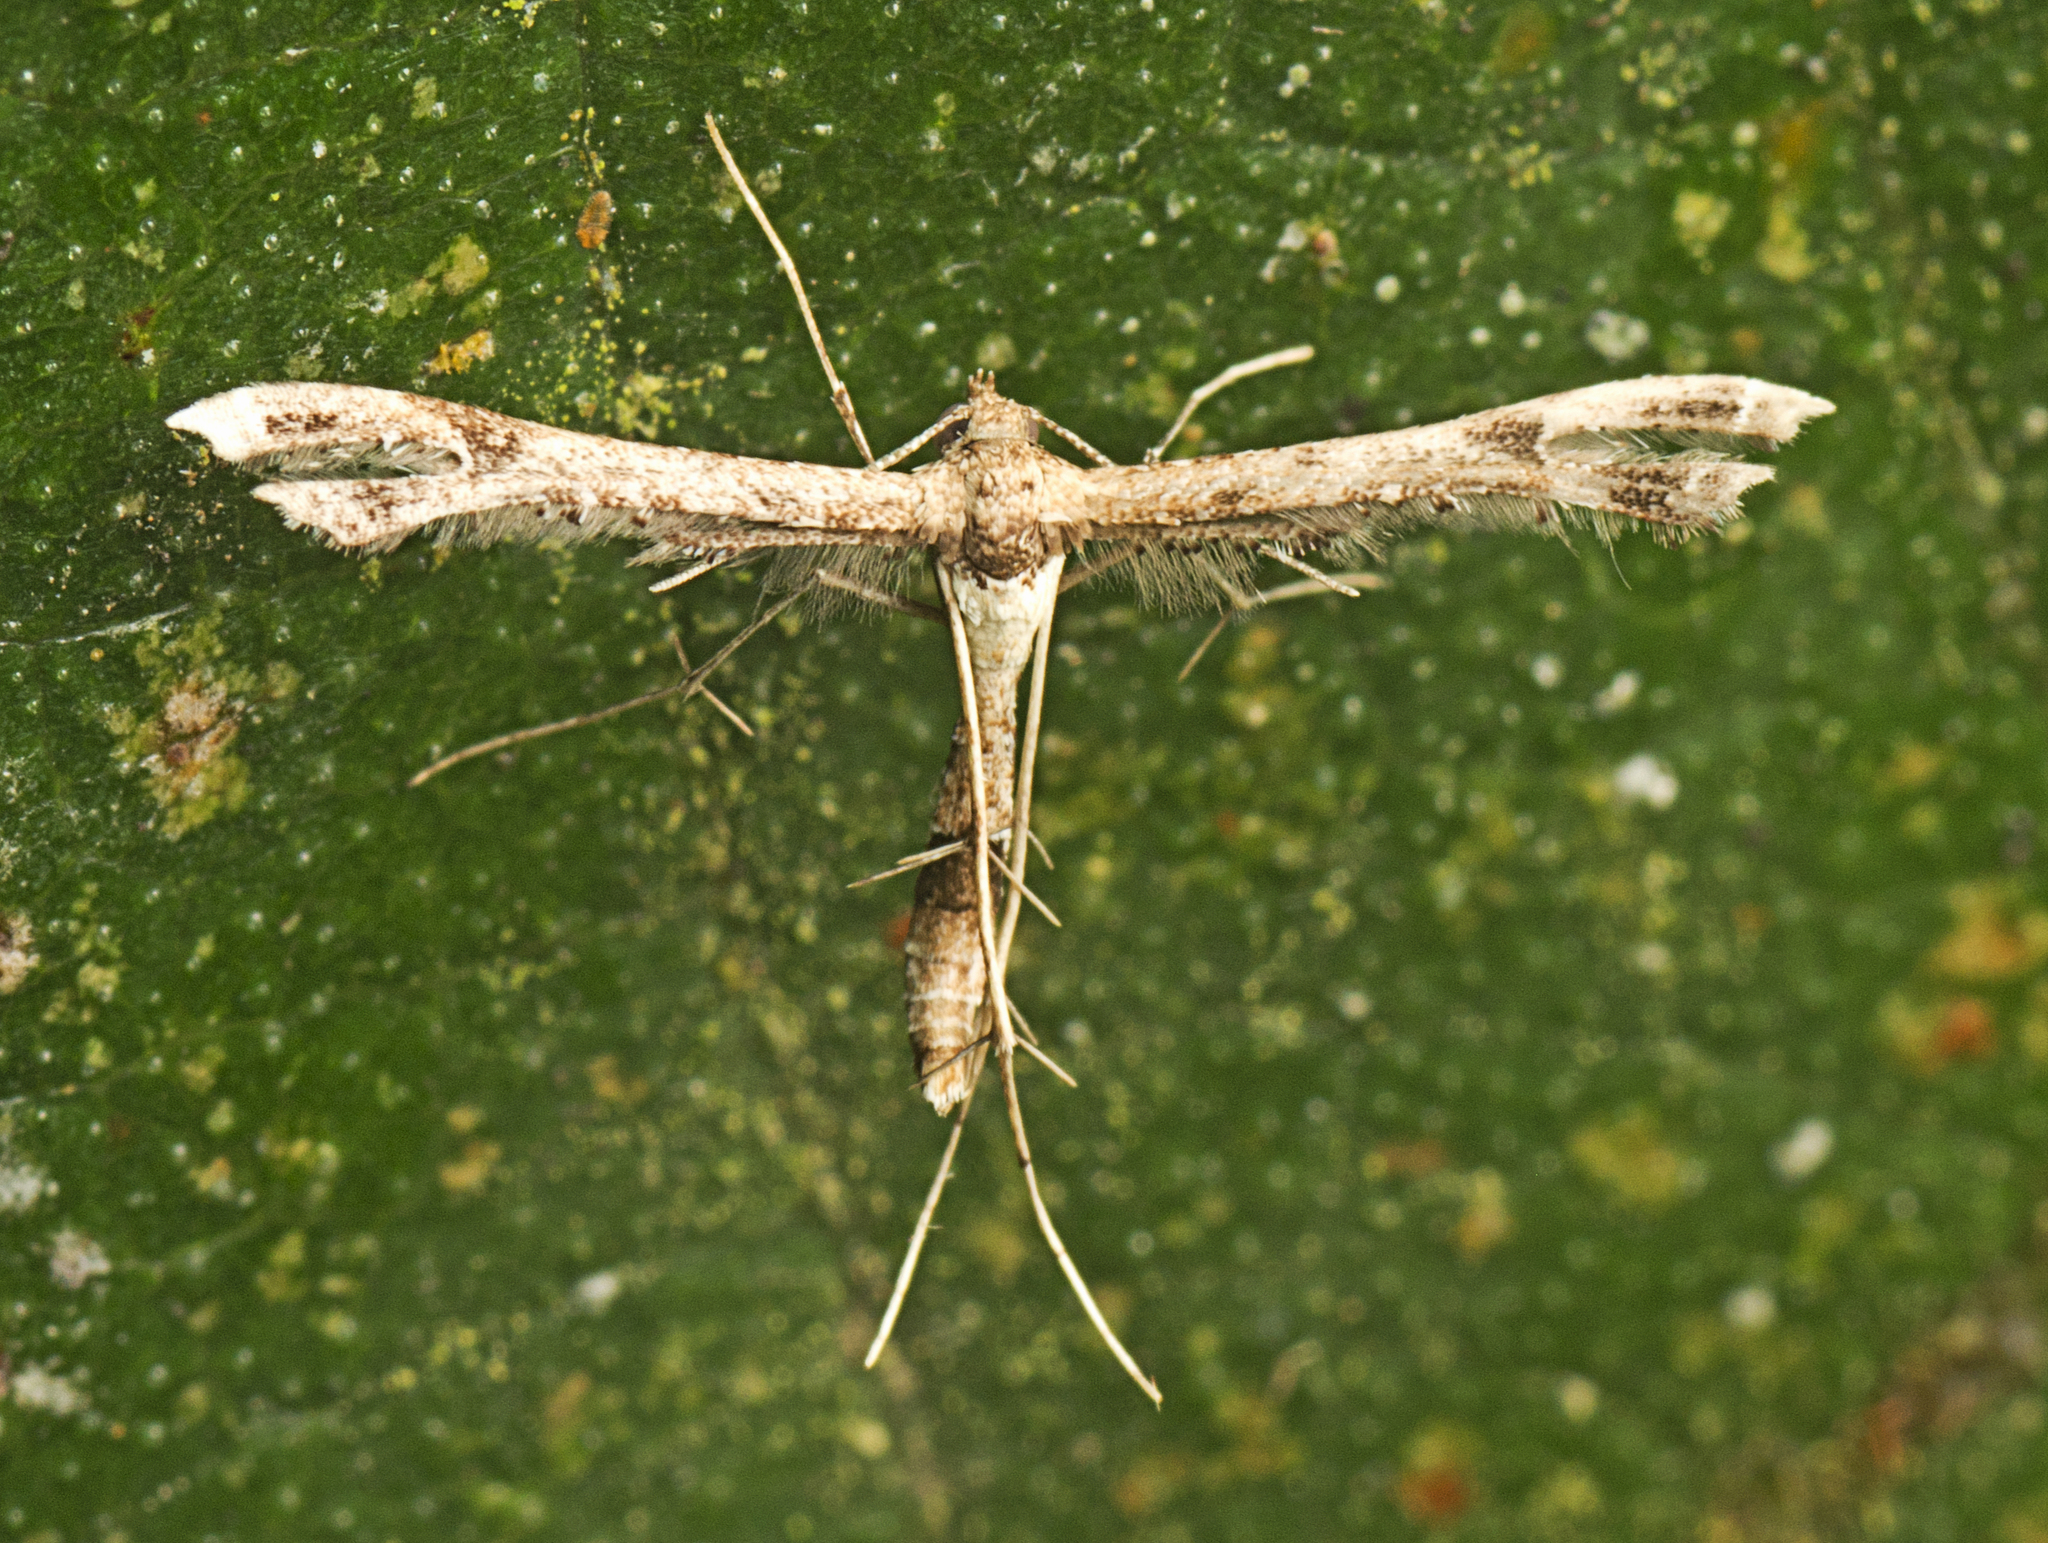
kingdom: Animalia
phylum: Arthropoda
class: Insecta
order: Lepidoptera
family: Pterophoridae
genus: Lantanophaga
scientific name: Lantanophaga pusillidactylus
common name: Moth
